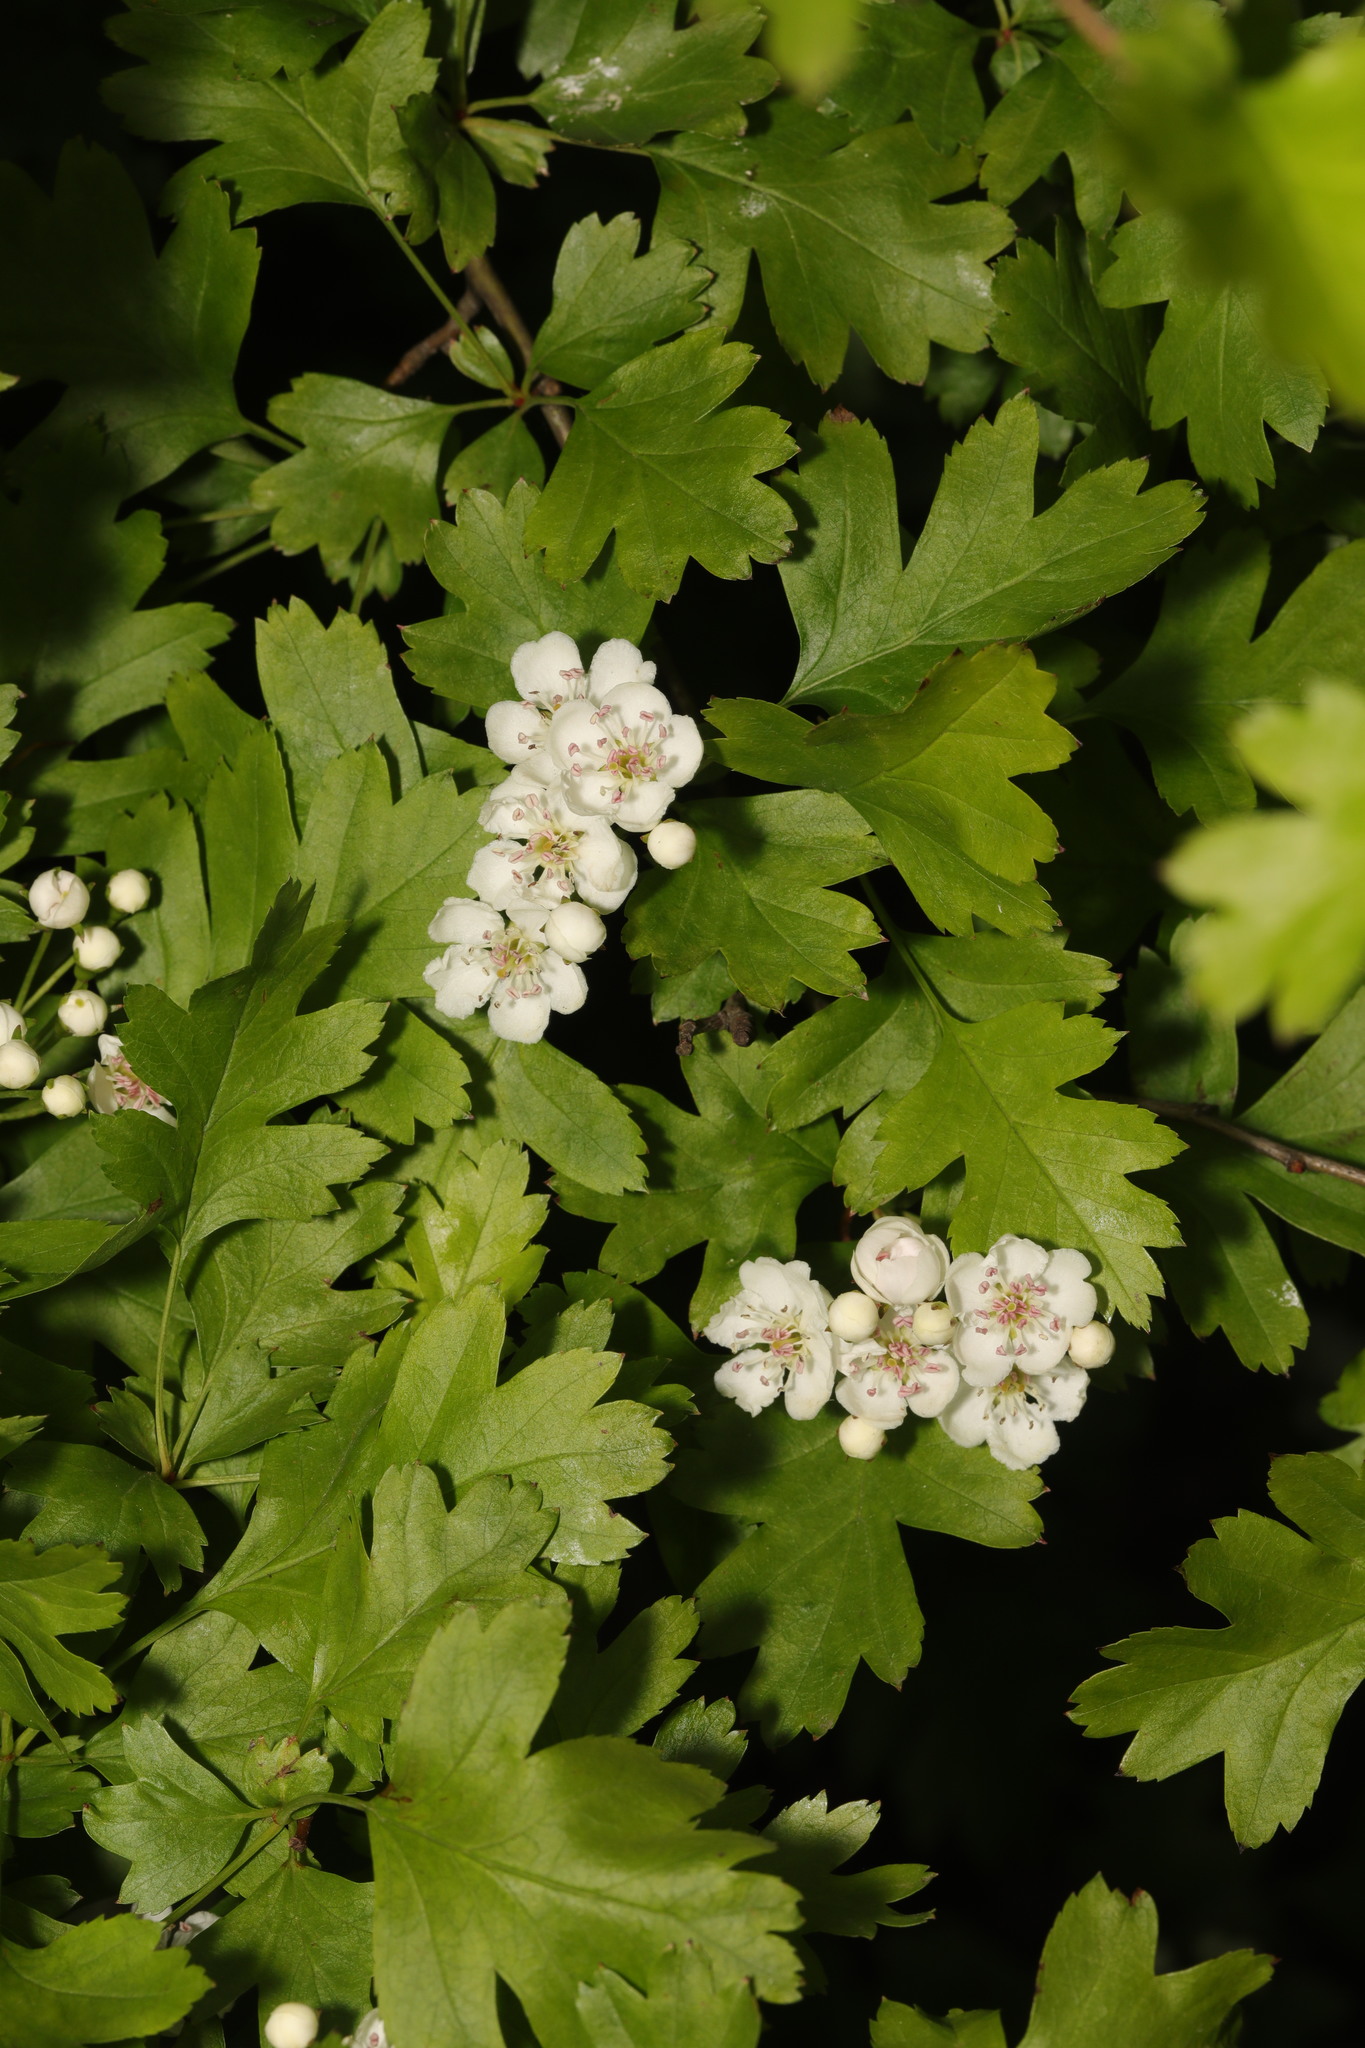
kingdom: Plantae
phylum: Tracheophyta
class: Magnoliopsida
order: Rosales
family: Rosaceae
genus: Crataegus
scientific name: Crataegus monogyna
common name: Hawthorn
